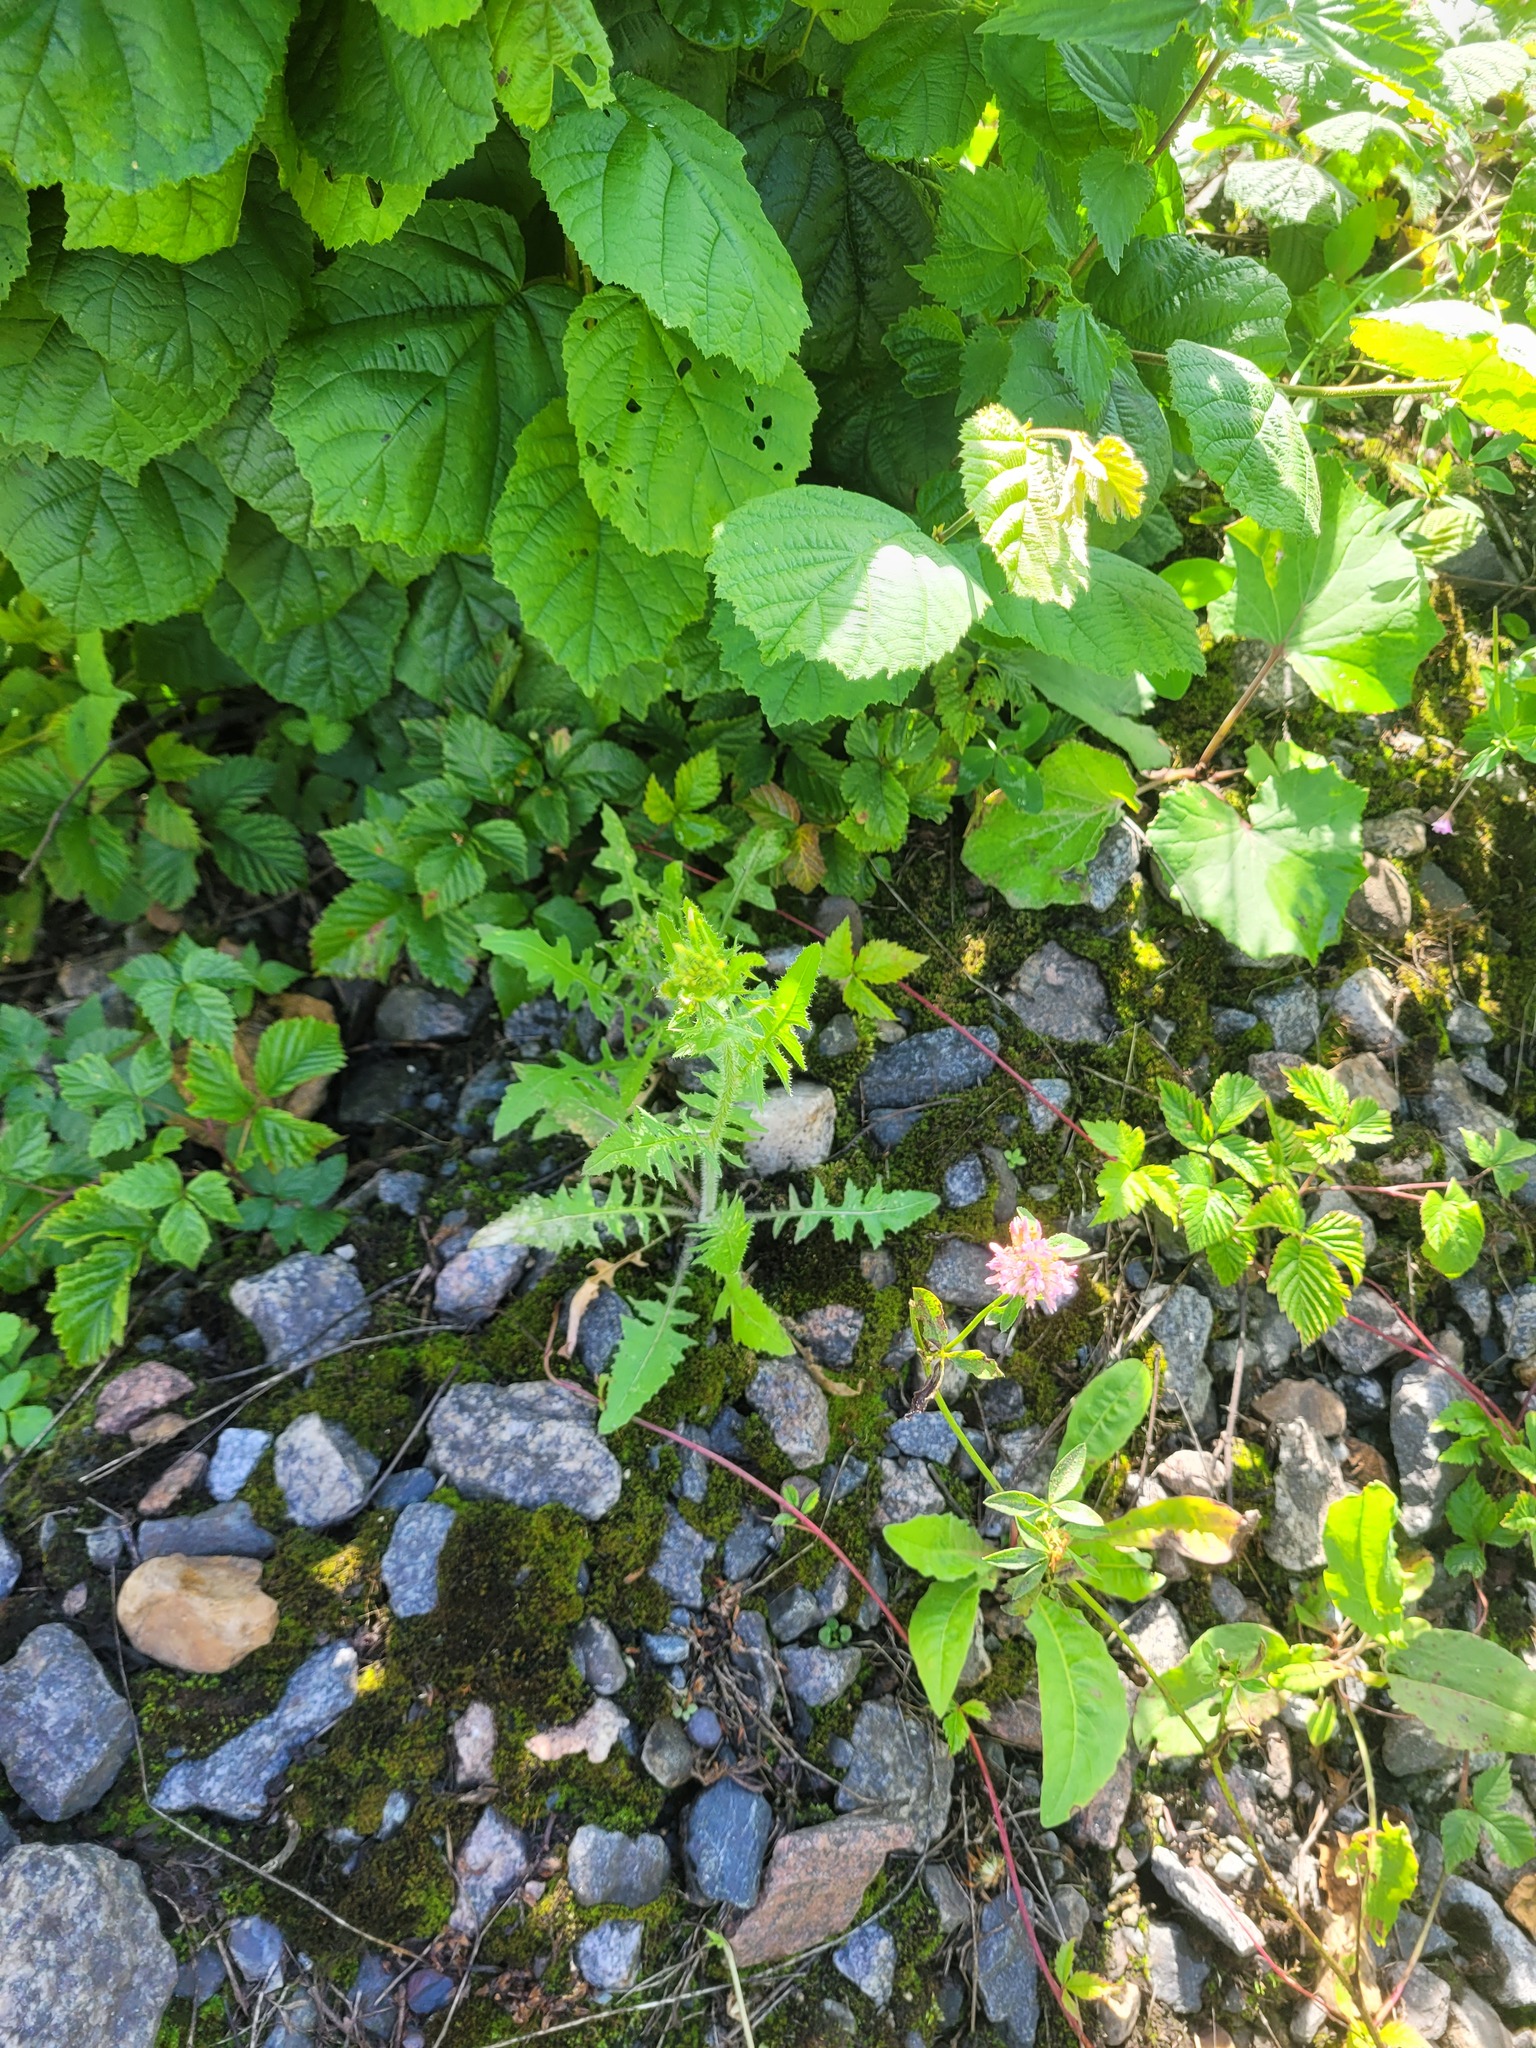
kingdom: Plantae
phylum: Tracheophyta
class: Magnoliopsida
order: Brassicales
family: Brassicaceae
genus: Sisymbrium
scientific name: Sisymbrium loeselii
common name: False london-rocket
